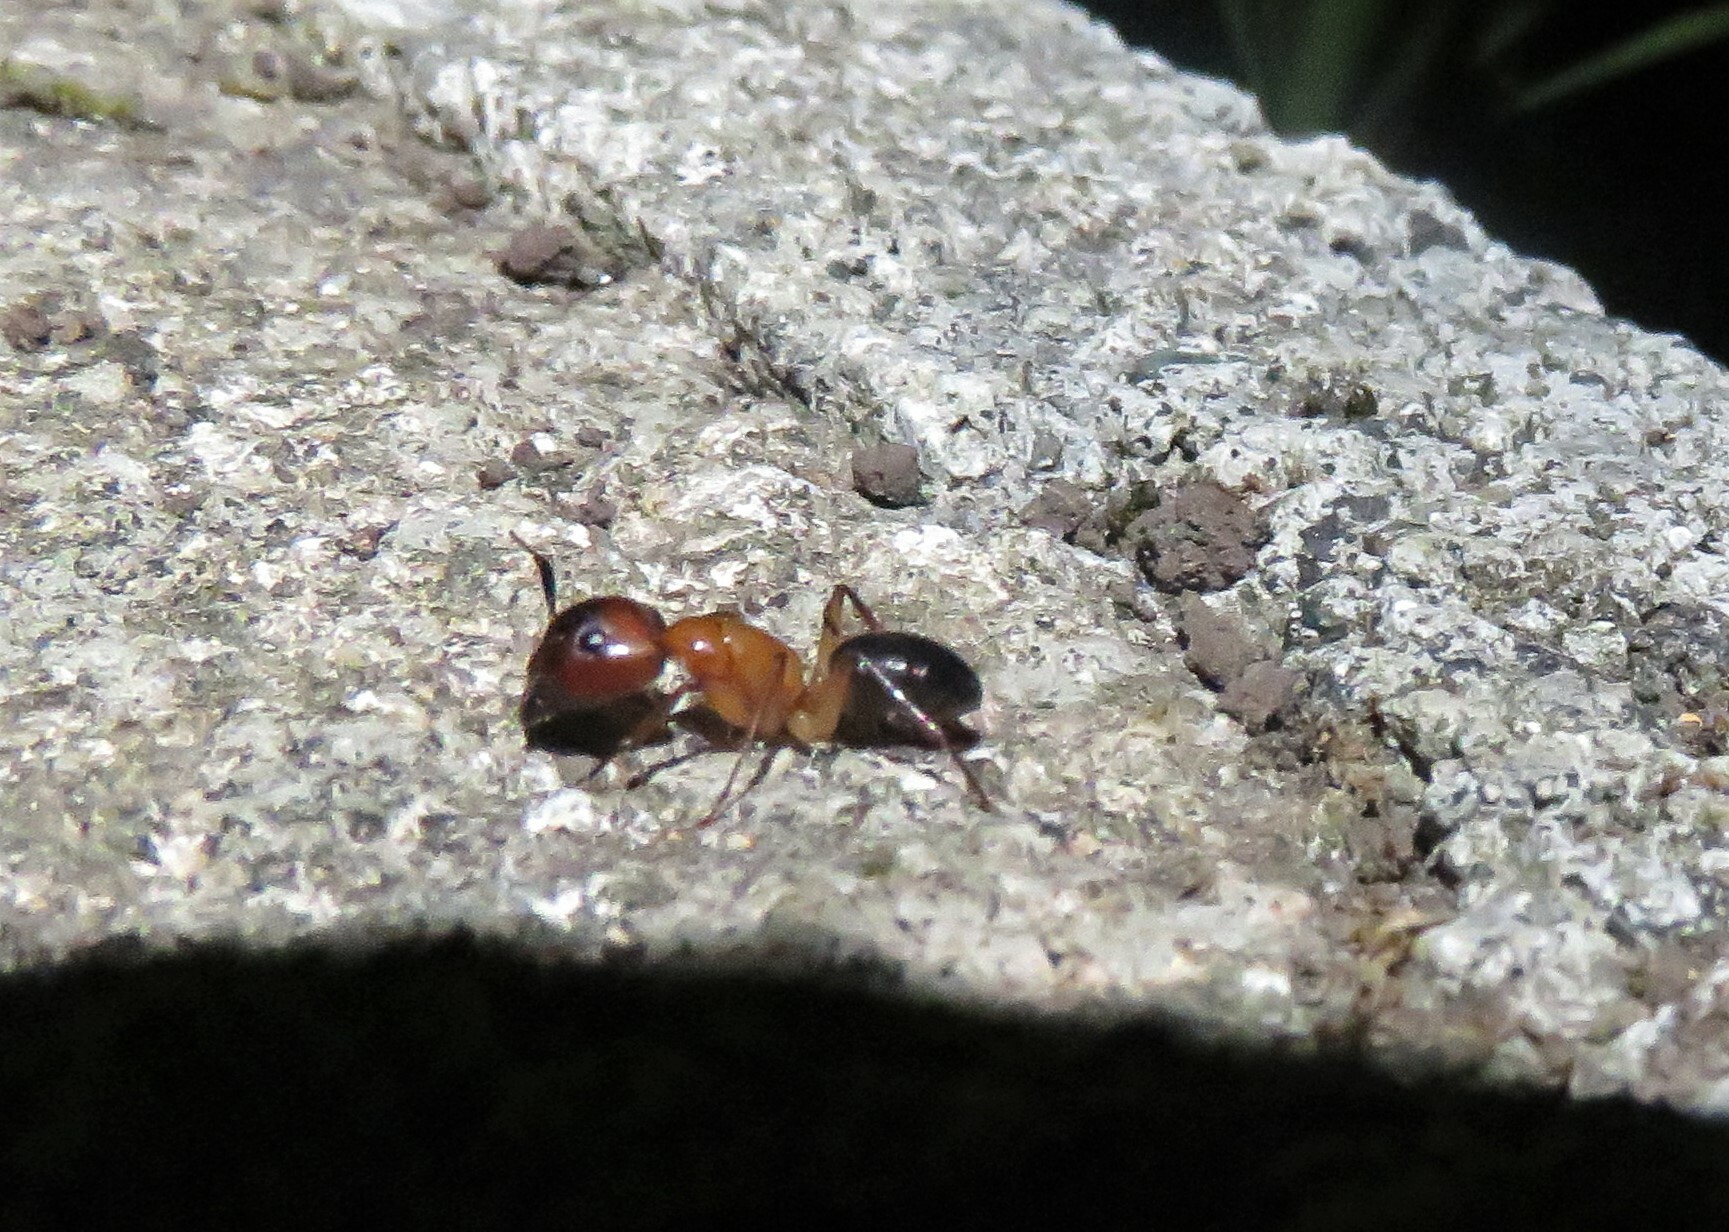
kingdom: Animalia
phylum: Arthropoda
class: Insecta
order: Hymenoptera
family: Formicidae
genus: Camponotus
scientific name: Camponotus atriceps
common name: Florida carpenter ant
